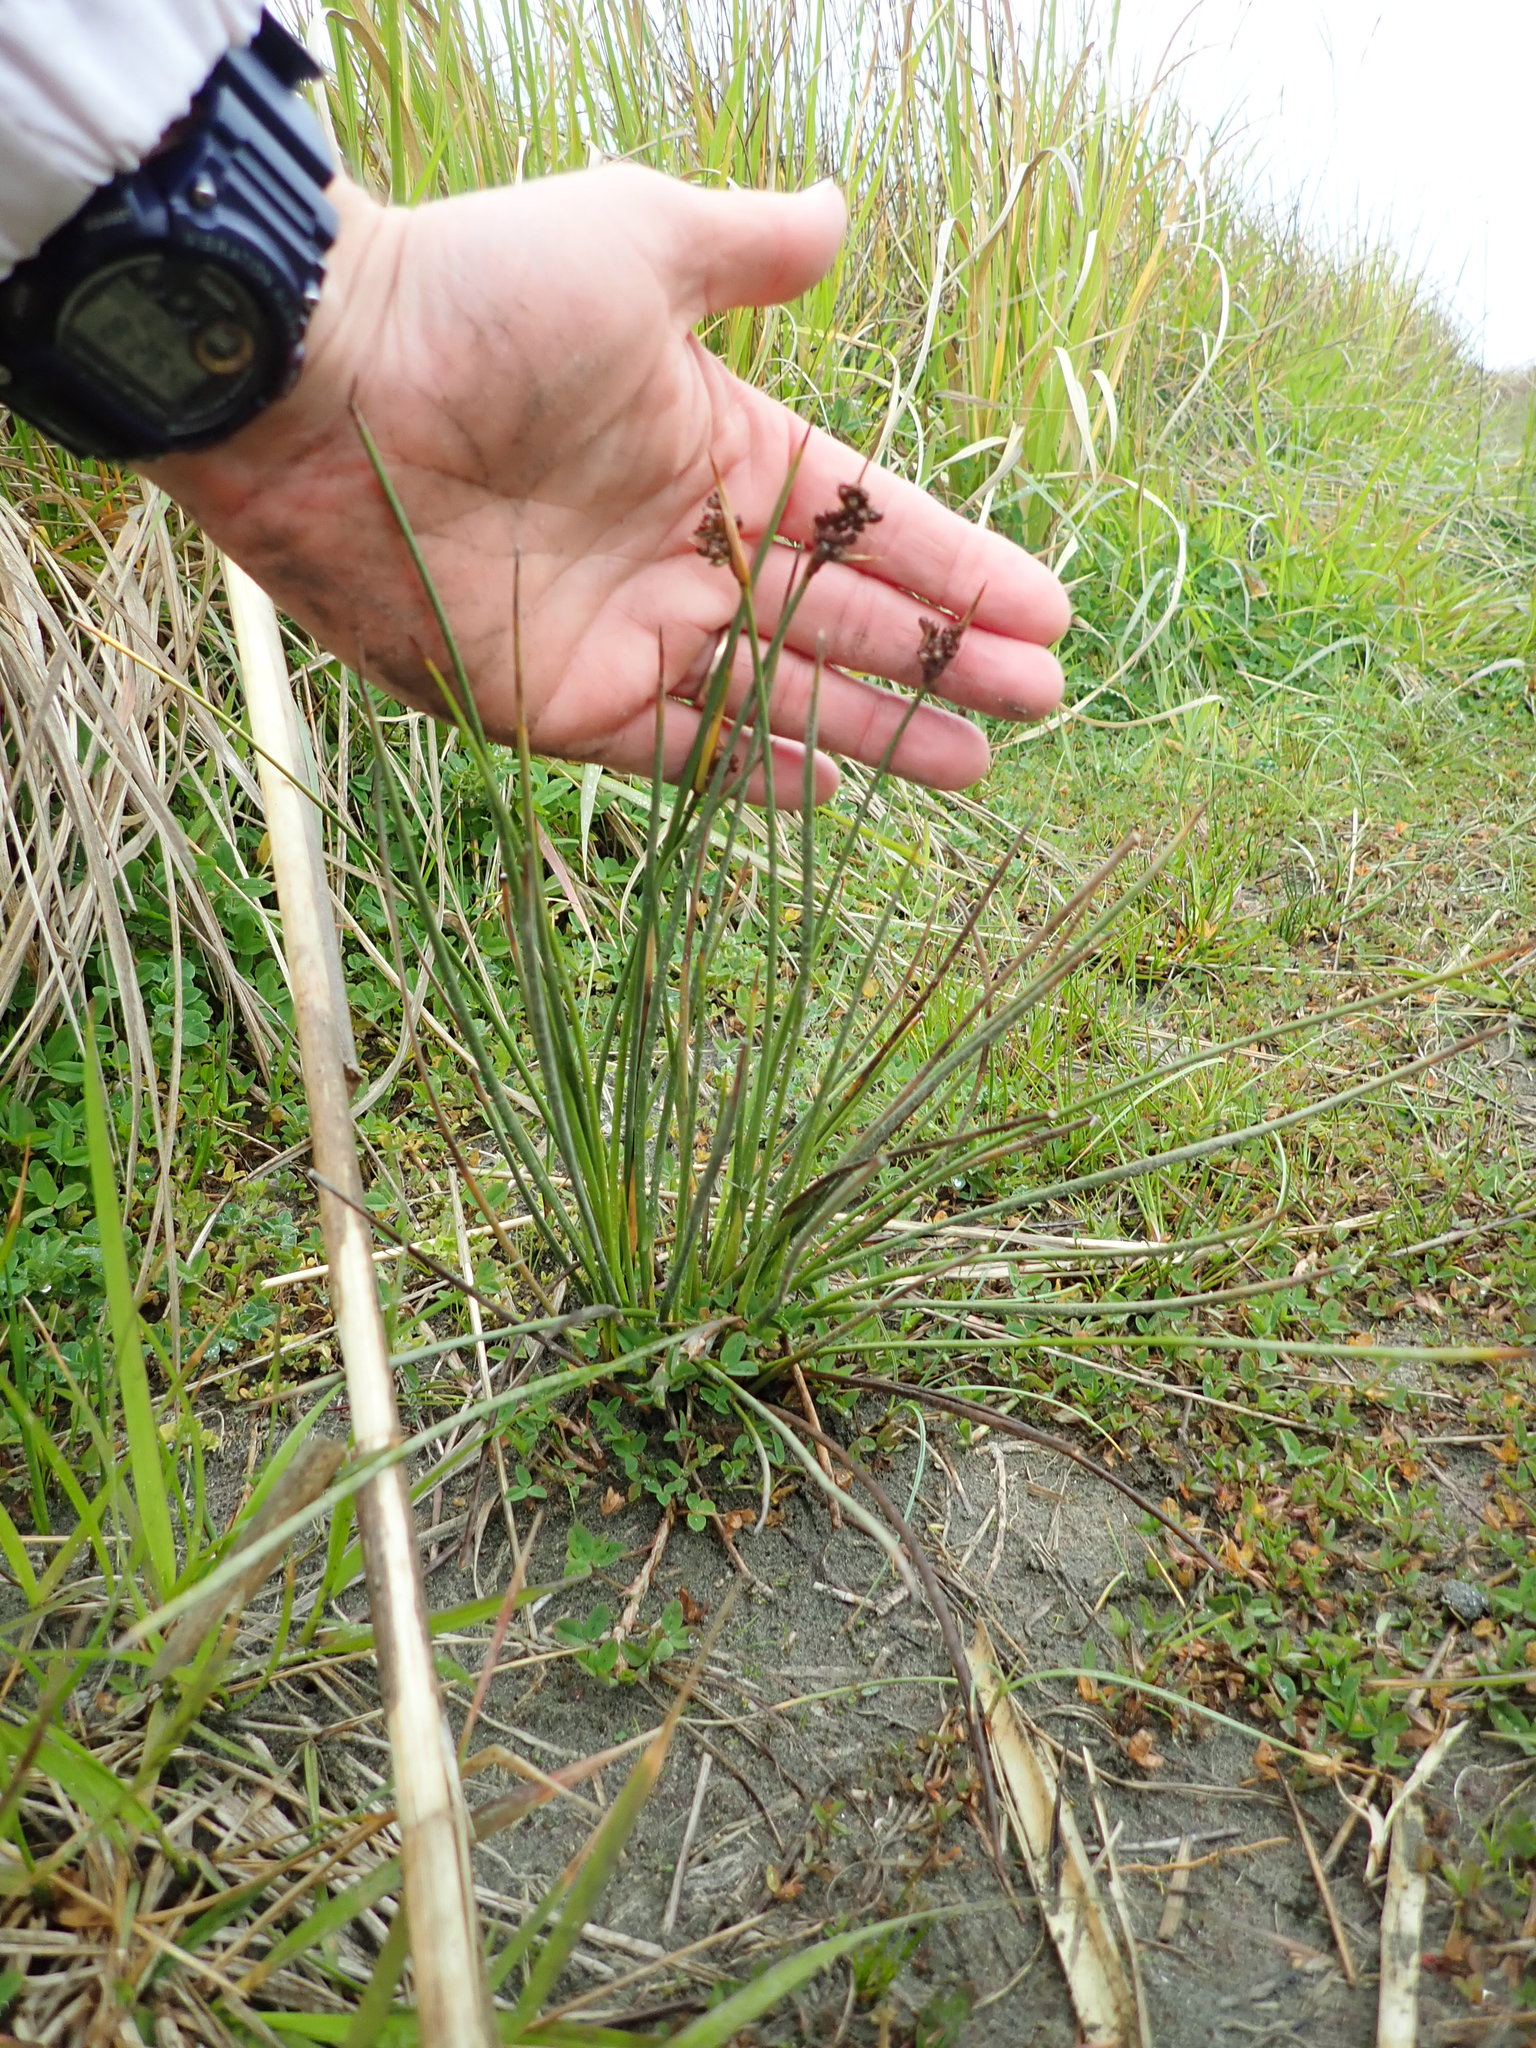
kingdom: Plantae
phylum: Tracheophyta
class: Liliopsida
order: Poales
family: Juncaceae
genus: Juncus
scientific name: Juncus acutus
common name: Sharp rush
